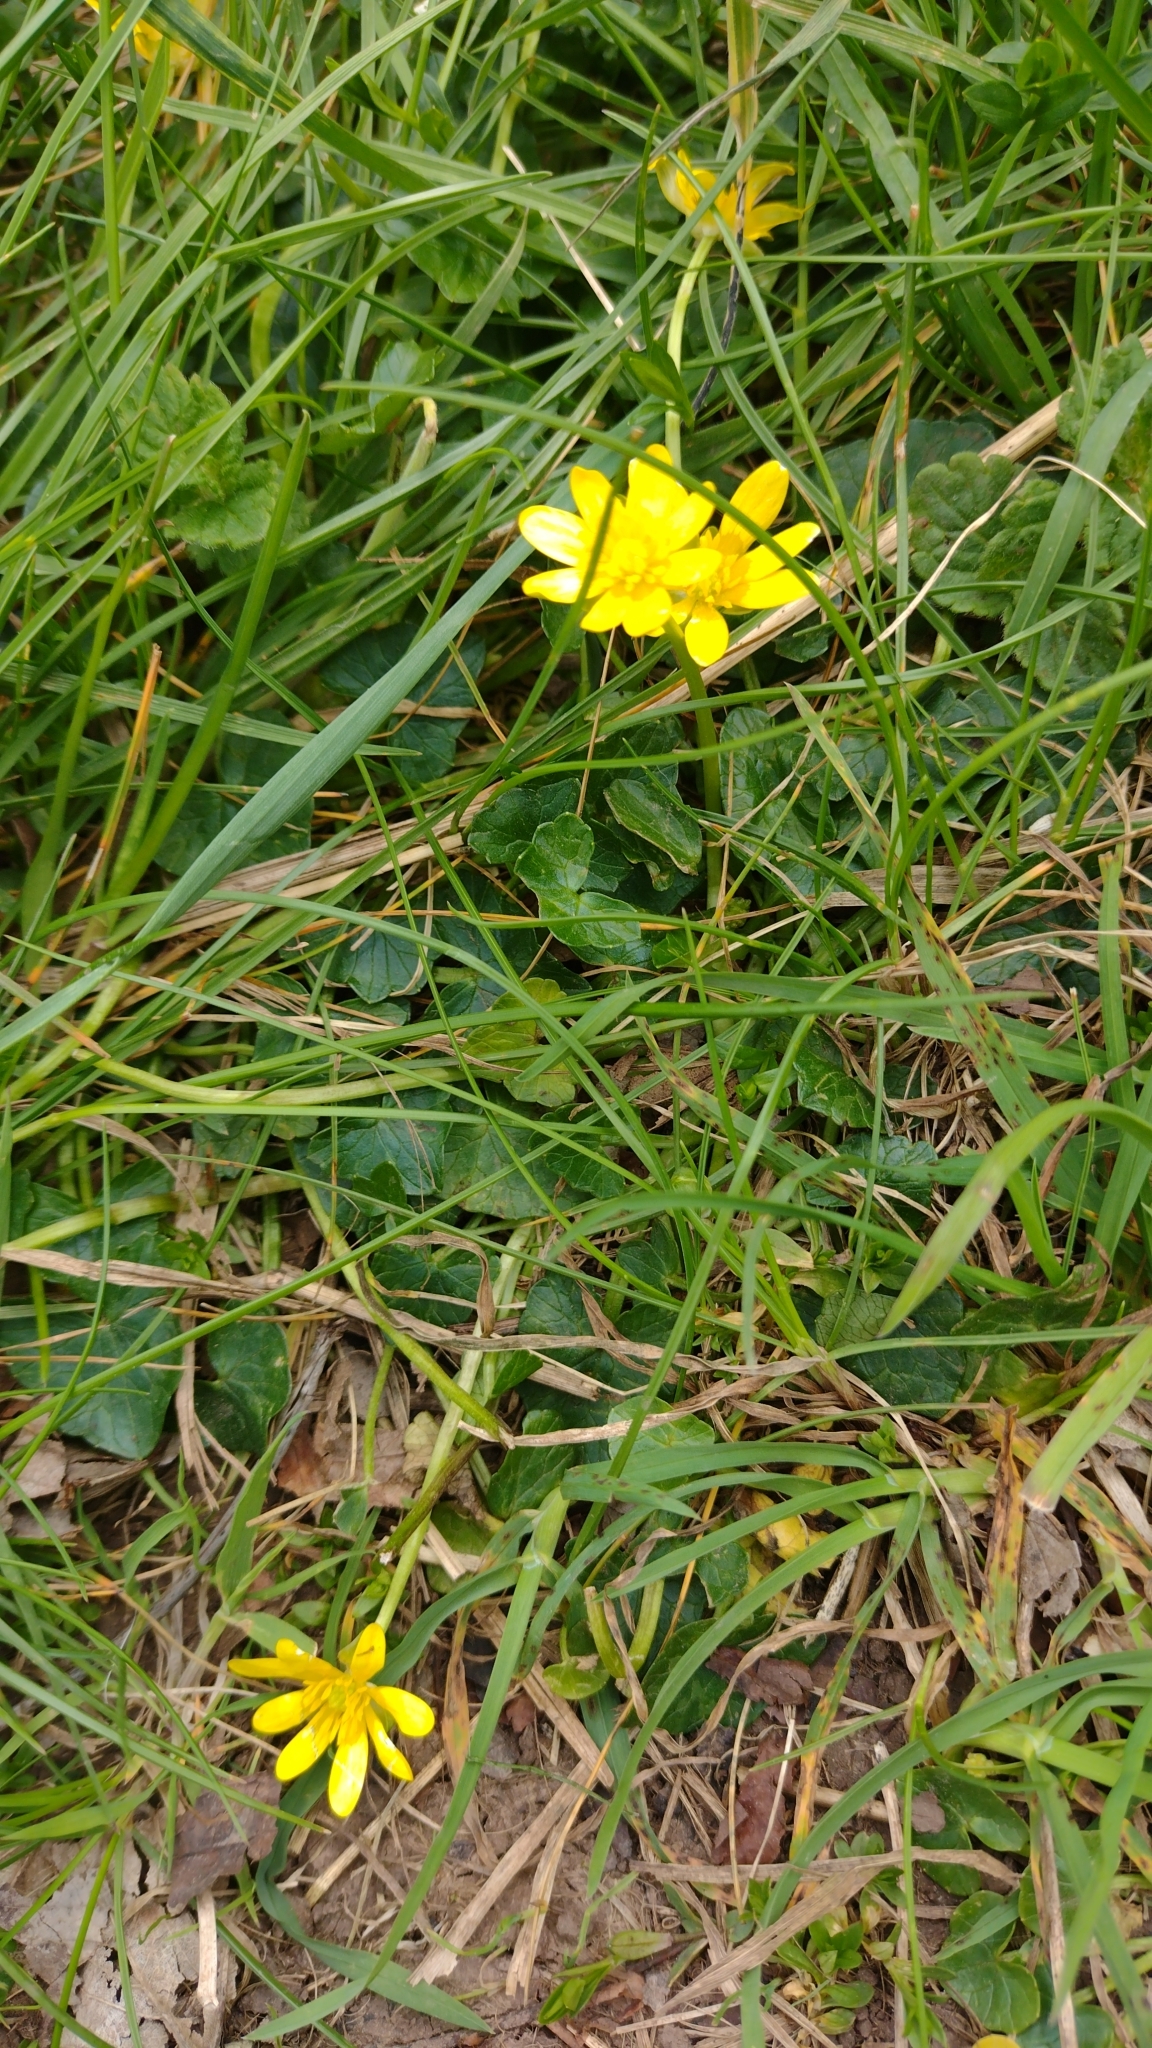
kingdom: Plantae
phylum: Tracheophyta
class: Magnoliopsida
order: Ranunculales
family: Ranunculaceae
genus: Ficaria
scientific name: Ficaria verna
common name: Lesser celandine
